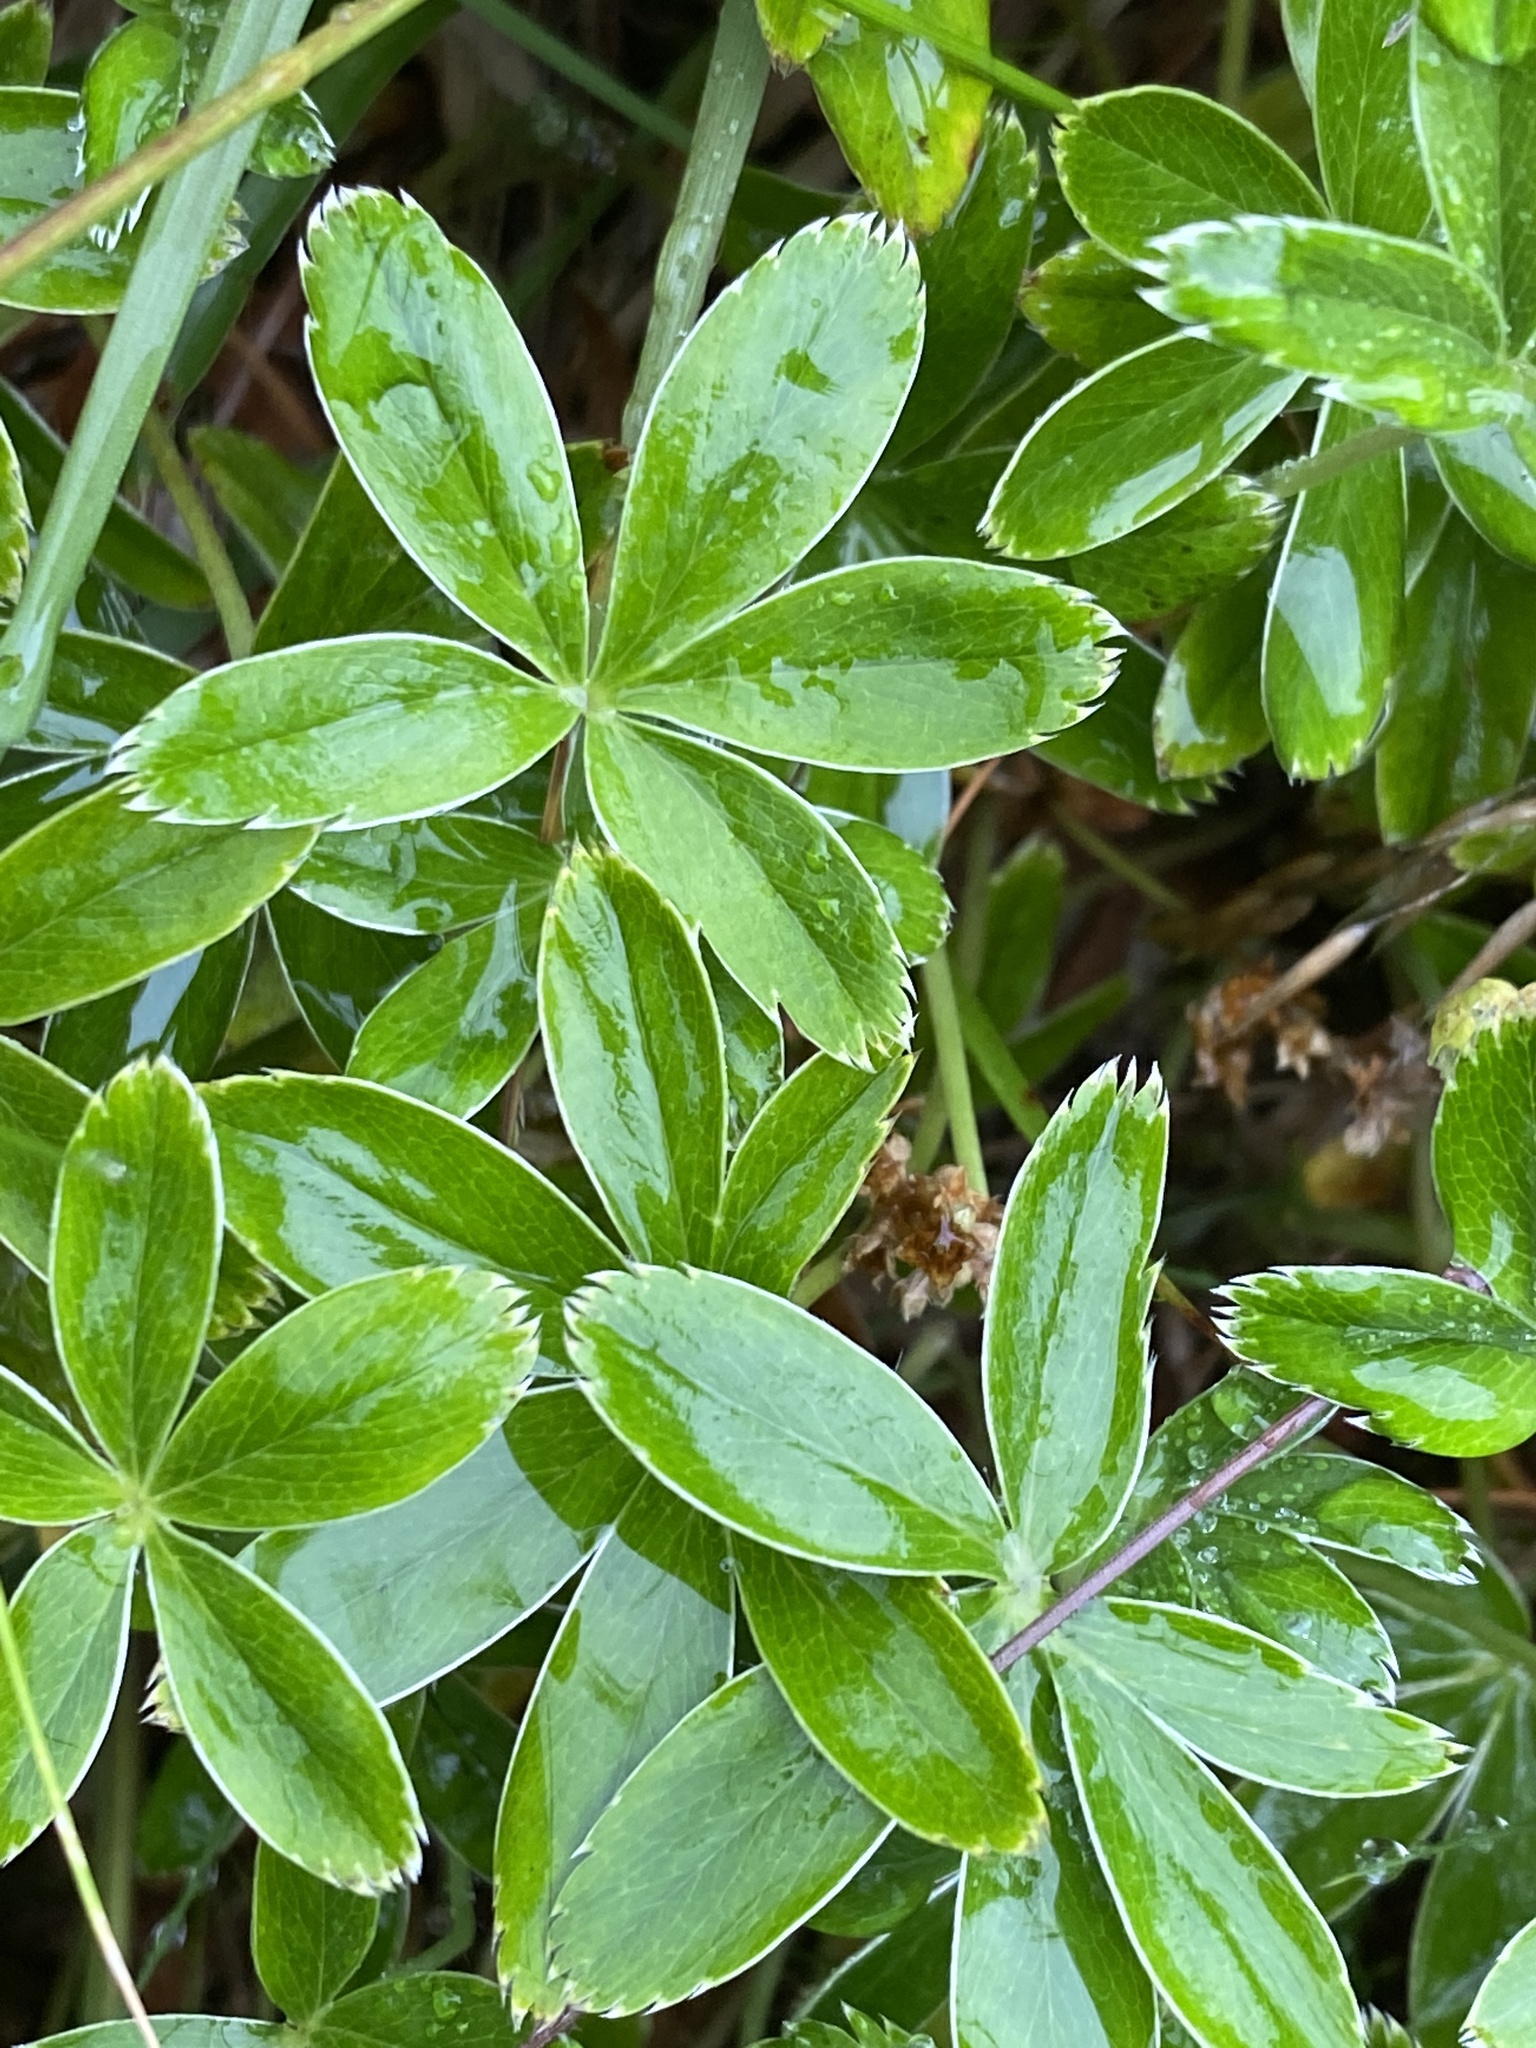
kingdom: Plantae
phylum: Tracheophyta
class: Magnoliopsida
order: Rosales
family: Rosaceae
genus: Alchemilla
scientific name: Alchemilla alpina
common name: Alpine lady's-mantle
